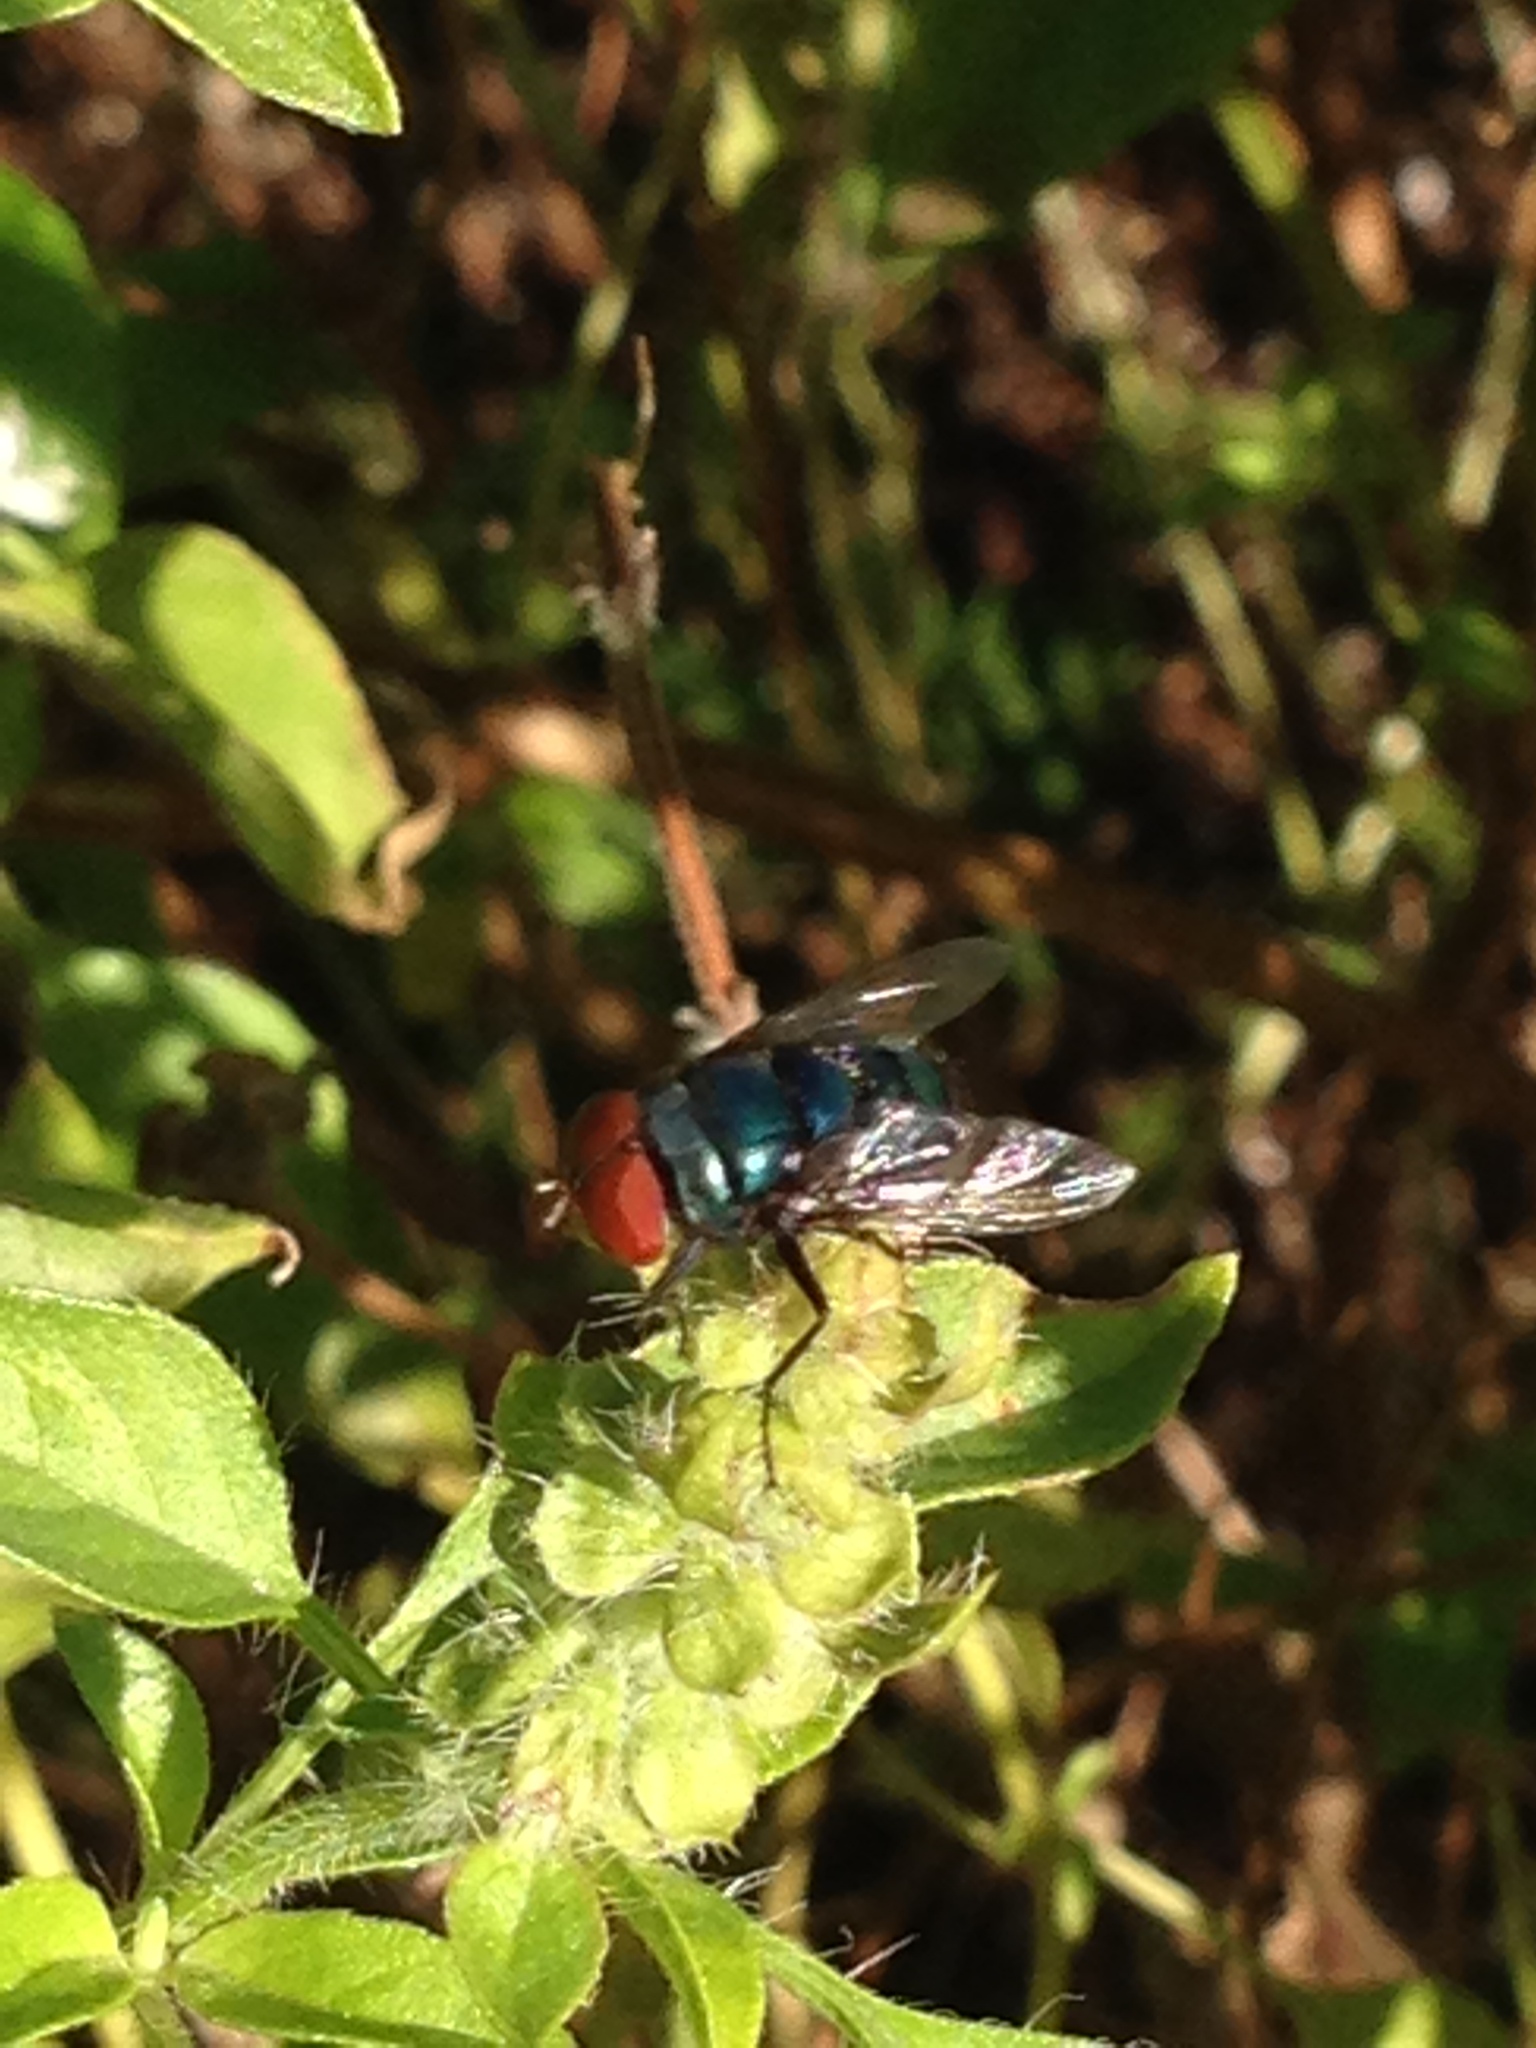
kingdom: Animalia
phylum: Arthropoda
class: Insecta
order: Diptera
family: Calliphoridae
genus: Chrysomya
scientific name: Chrysomya megacephala
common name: Blow fly
